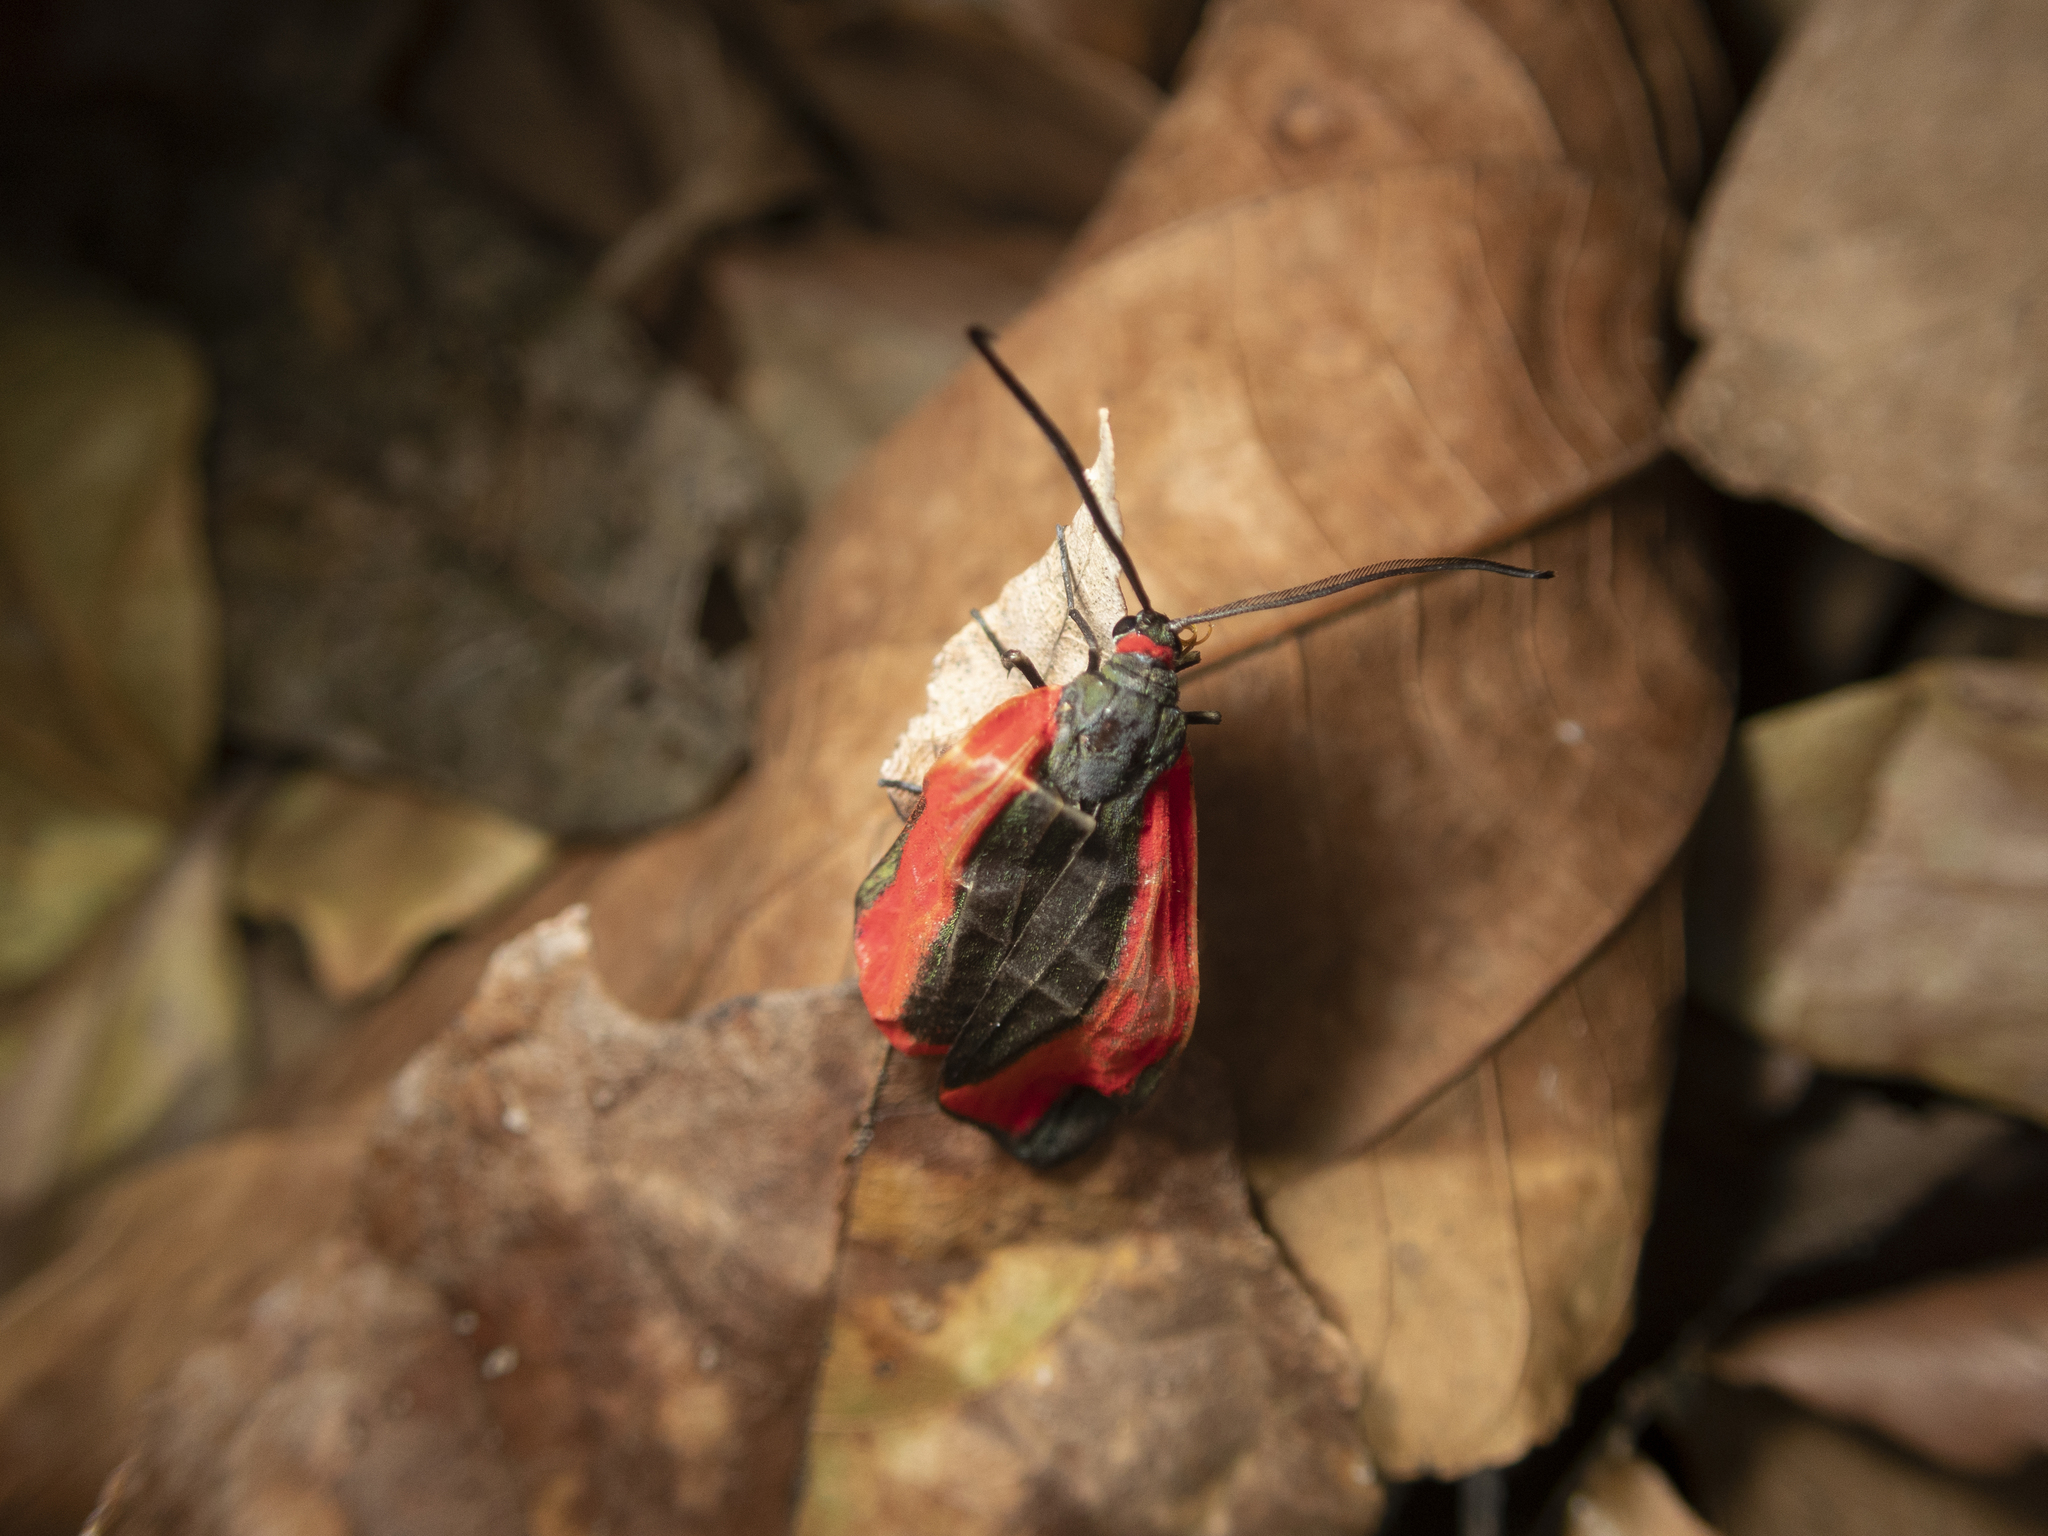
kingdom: Animalia
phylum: Arthropoda
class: Insecta
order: Lepidoptera
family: Zygaenidae
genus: Retina
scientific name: Retina rubrivitta
